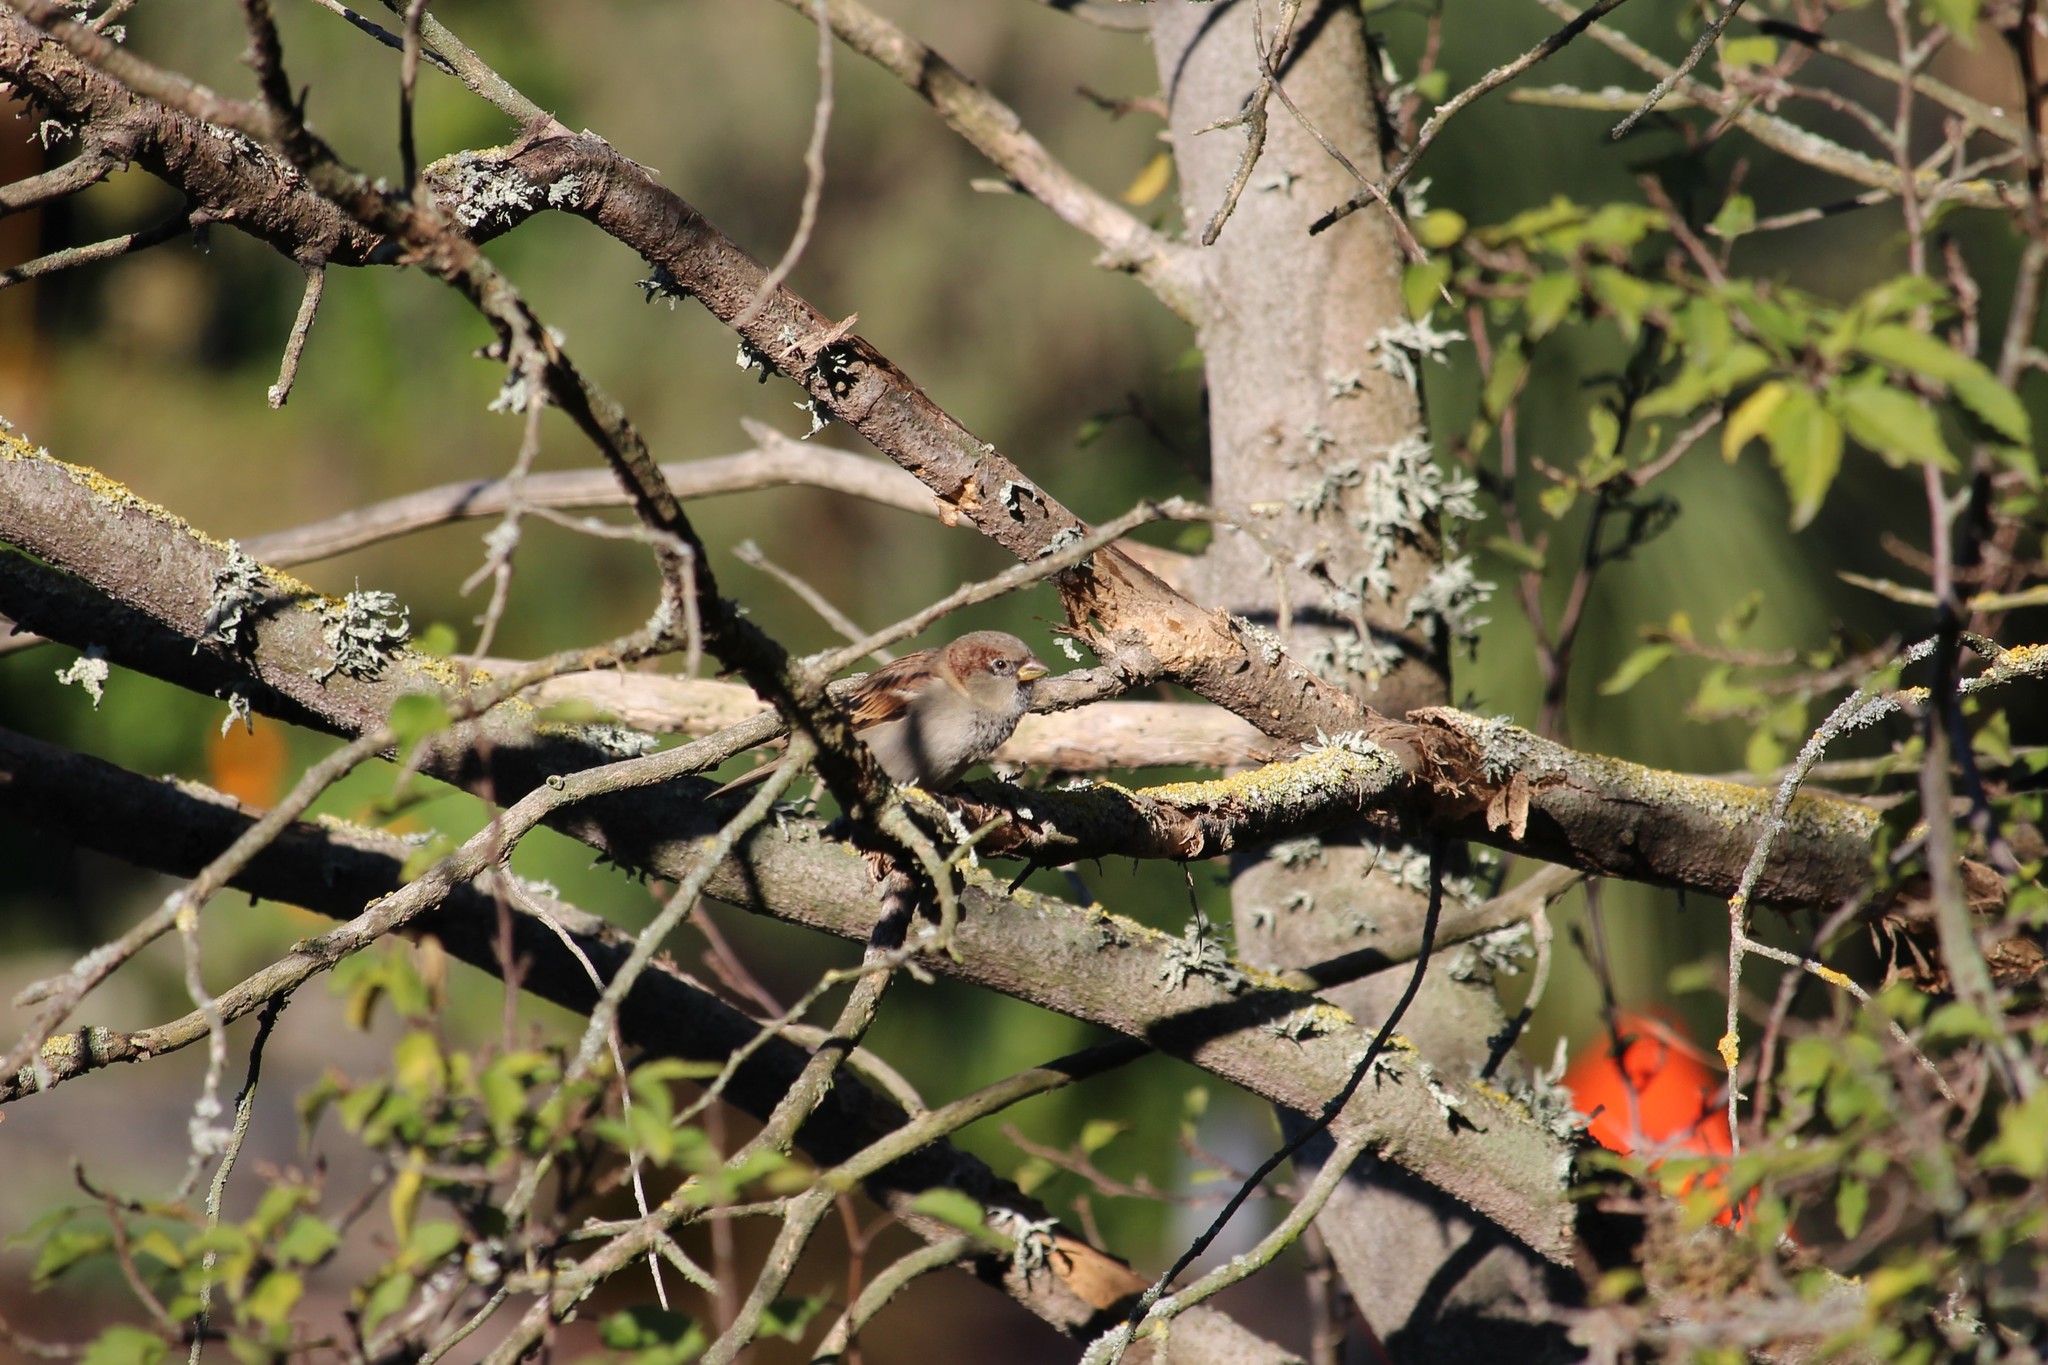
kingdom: Animalia
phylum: Chordata
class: Aves
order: Passeriformes
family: Passeridae
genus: Passer
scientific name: Passer domesticus
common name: House sparrow
